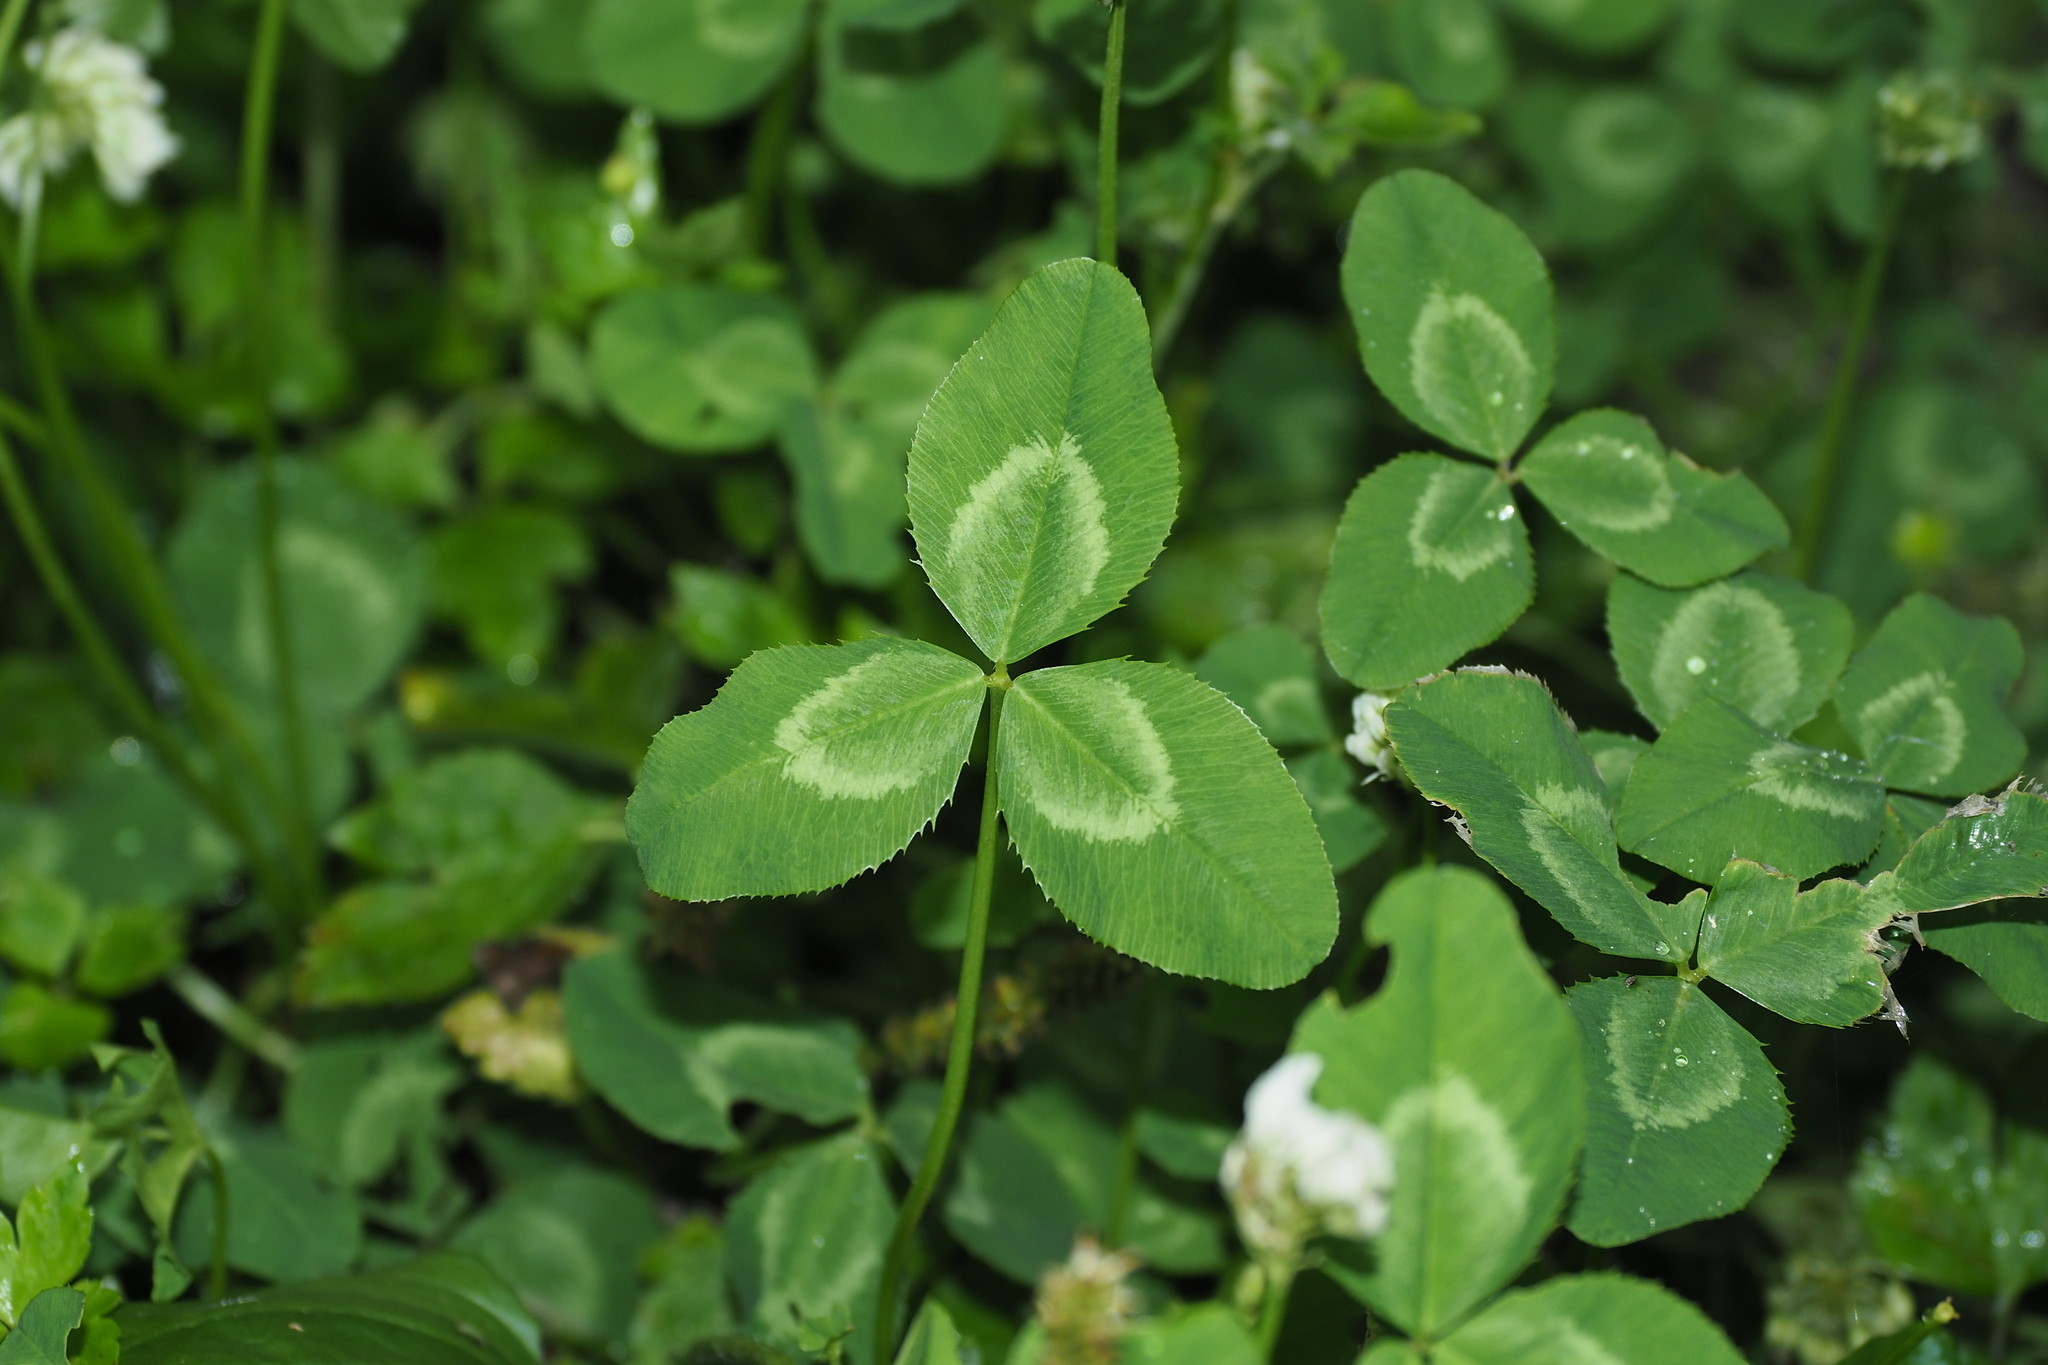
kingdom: Plantae
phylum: Tracheophyta
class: Magnoliopsida
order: Fabales
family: Fabaceae
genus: Trifolium
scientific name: Trifolium repens
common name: White clover
